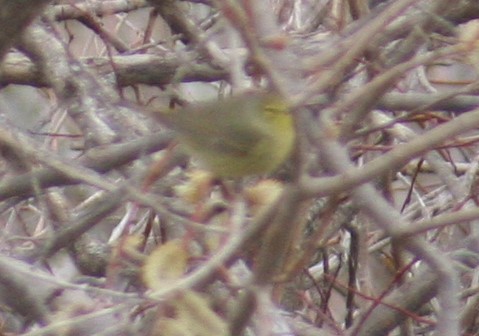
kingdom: Animalia
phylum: Chordata
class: Aves
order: Passeriformes
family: Parulidae
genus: Leiothlypis
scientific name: Leiothlypis celata
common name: Orange-crowned warbler
